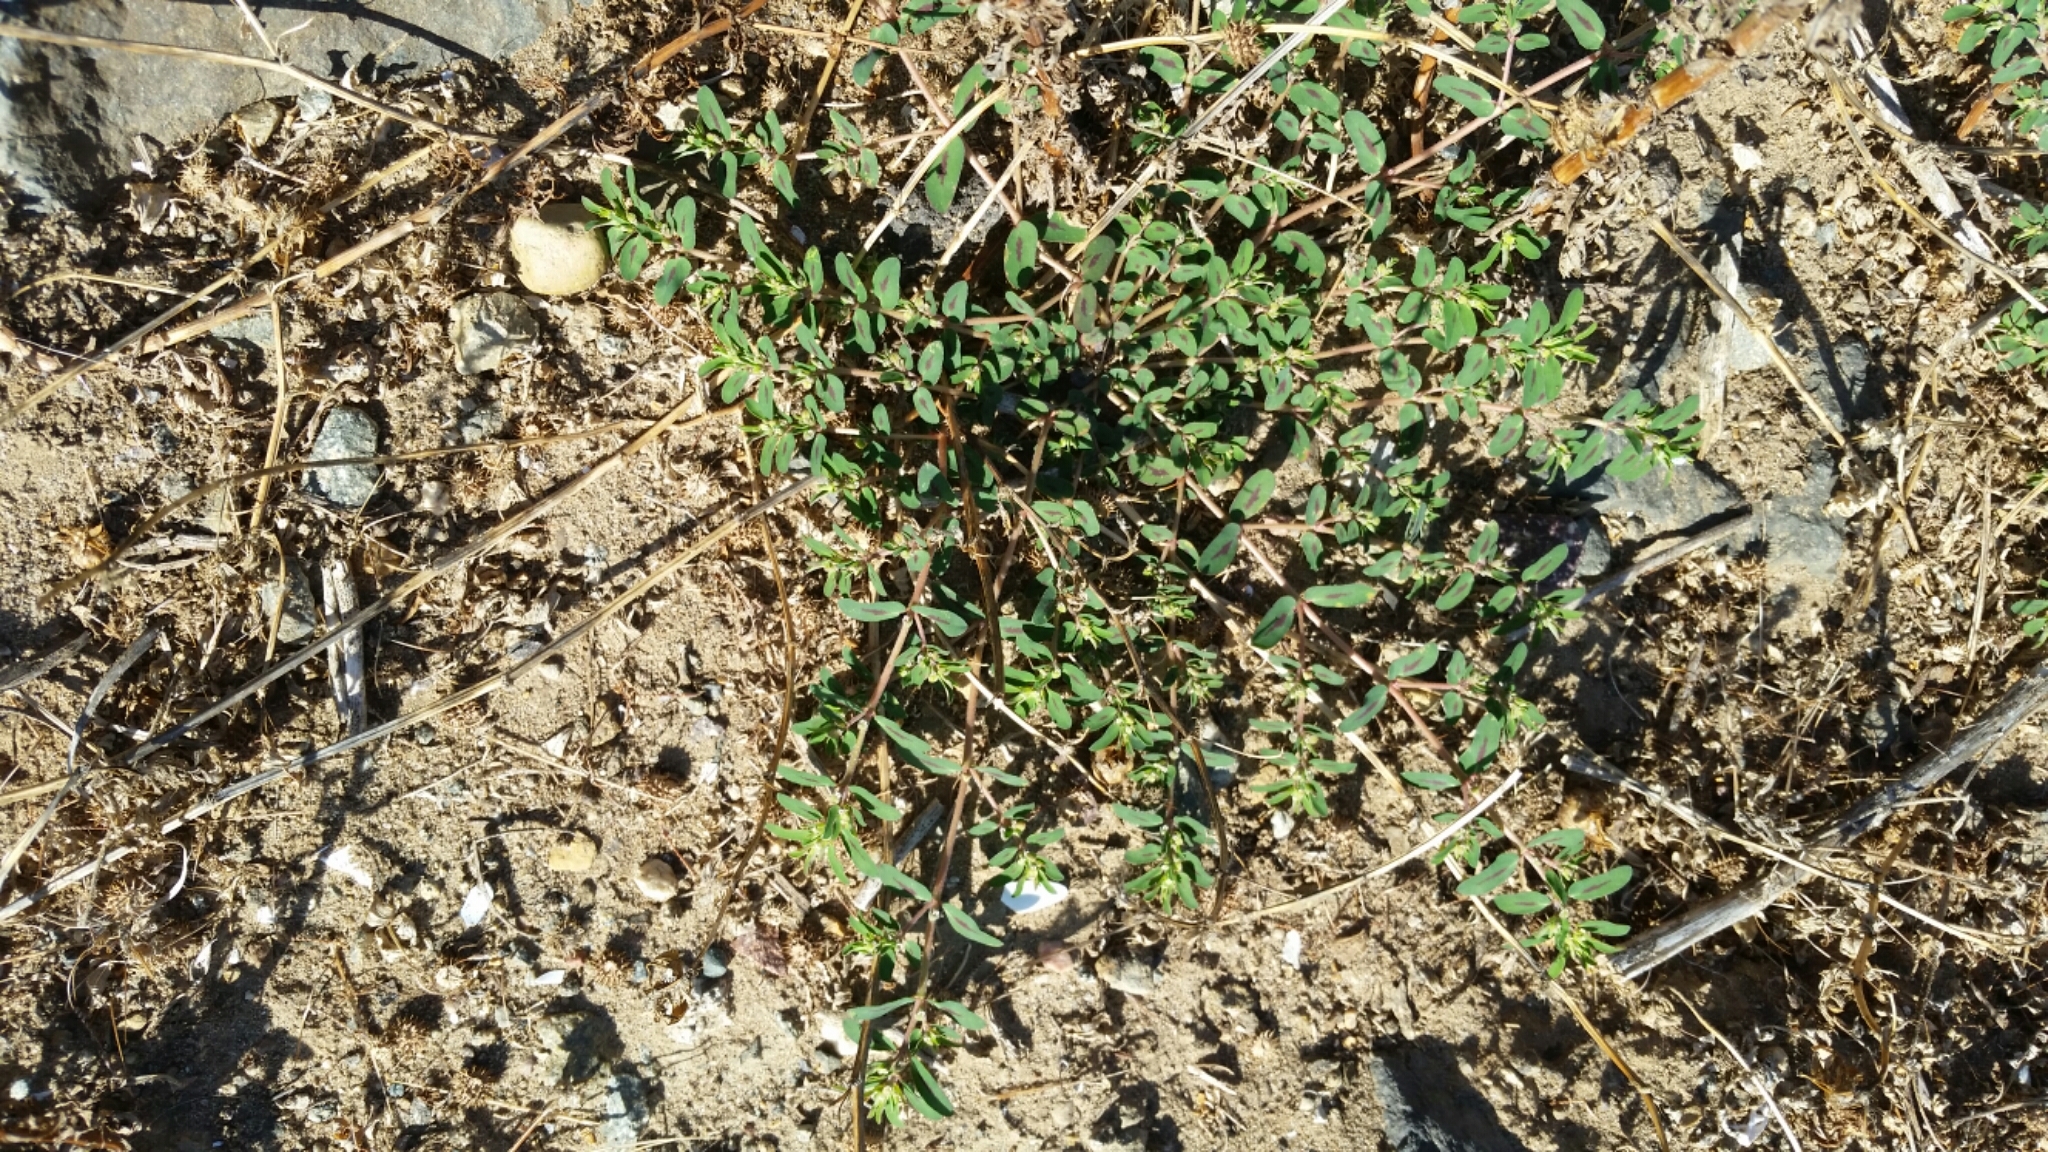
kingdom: Plantae
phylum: Tracheophyta
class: Magnoliopsida
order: Malpighiales
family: Euphorbiaceae
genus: Euphorbia
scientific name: Euphorbia maculata
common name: Spotted spurge
